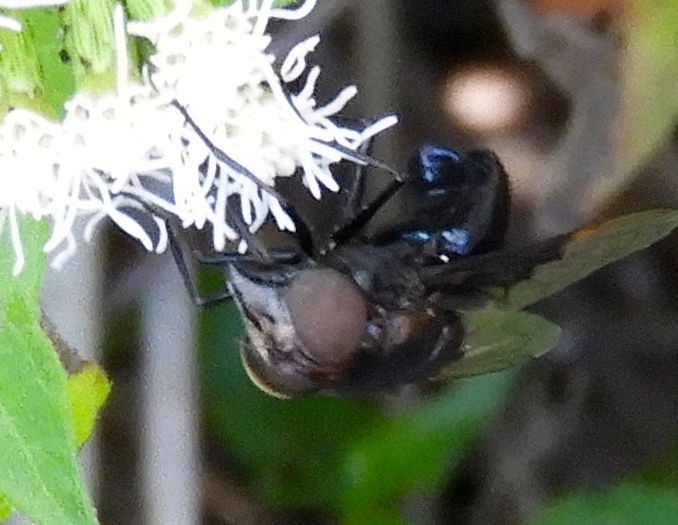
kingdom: Animalia
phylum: Arthropoda
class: Insecta
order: Diptera
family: Syrphidae
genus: Copestylum
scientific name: Copestylum mexicanum
